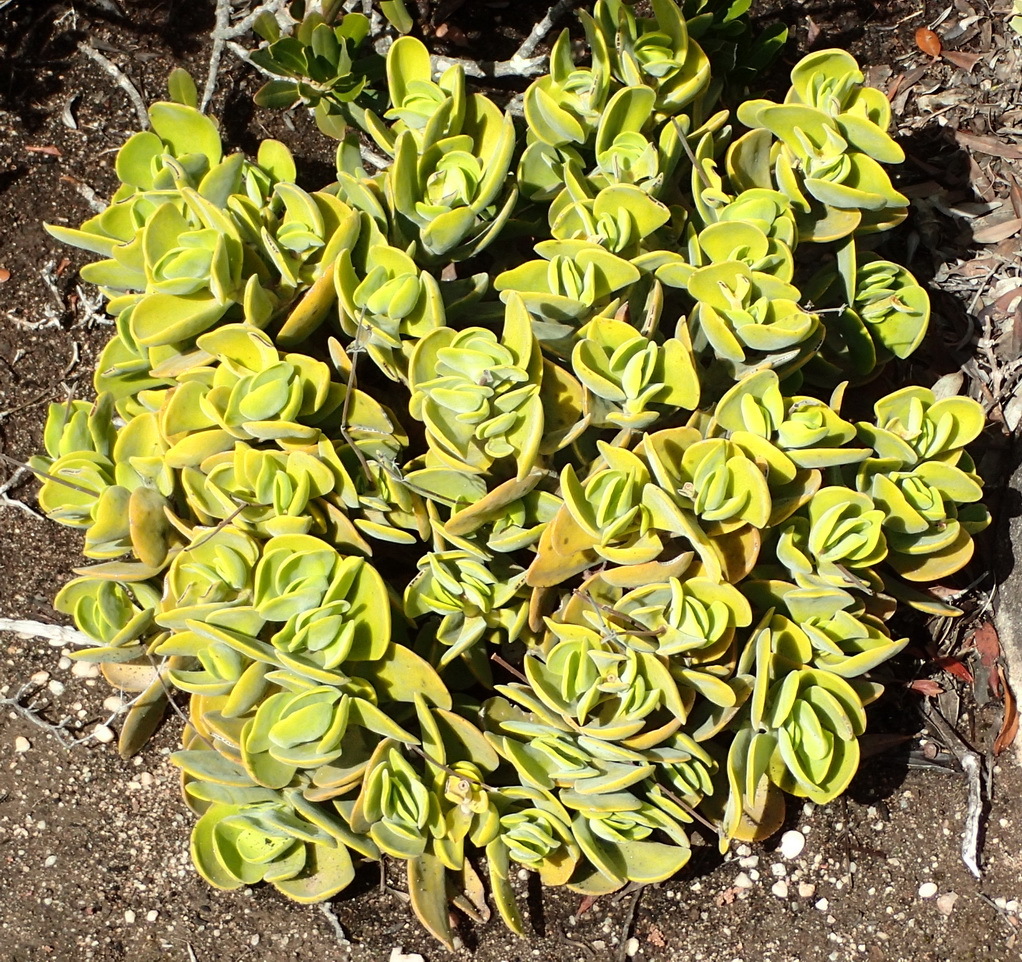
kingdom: Plantae
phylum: Tracheophyta
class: Magnoliopsida
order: Saxifragales
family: Crassulaceae
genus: Crassula
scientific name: Crassula atropurpurea
